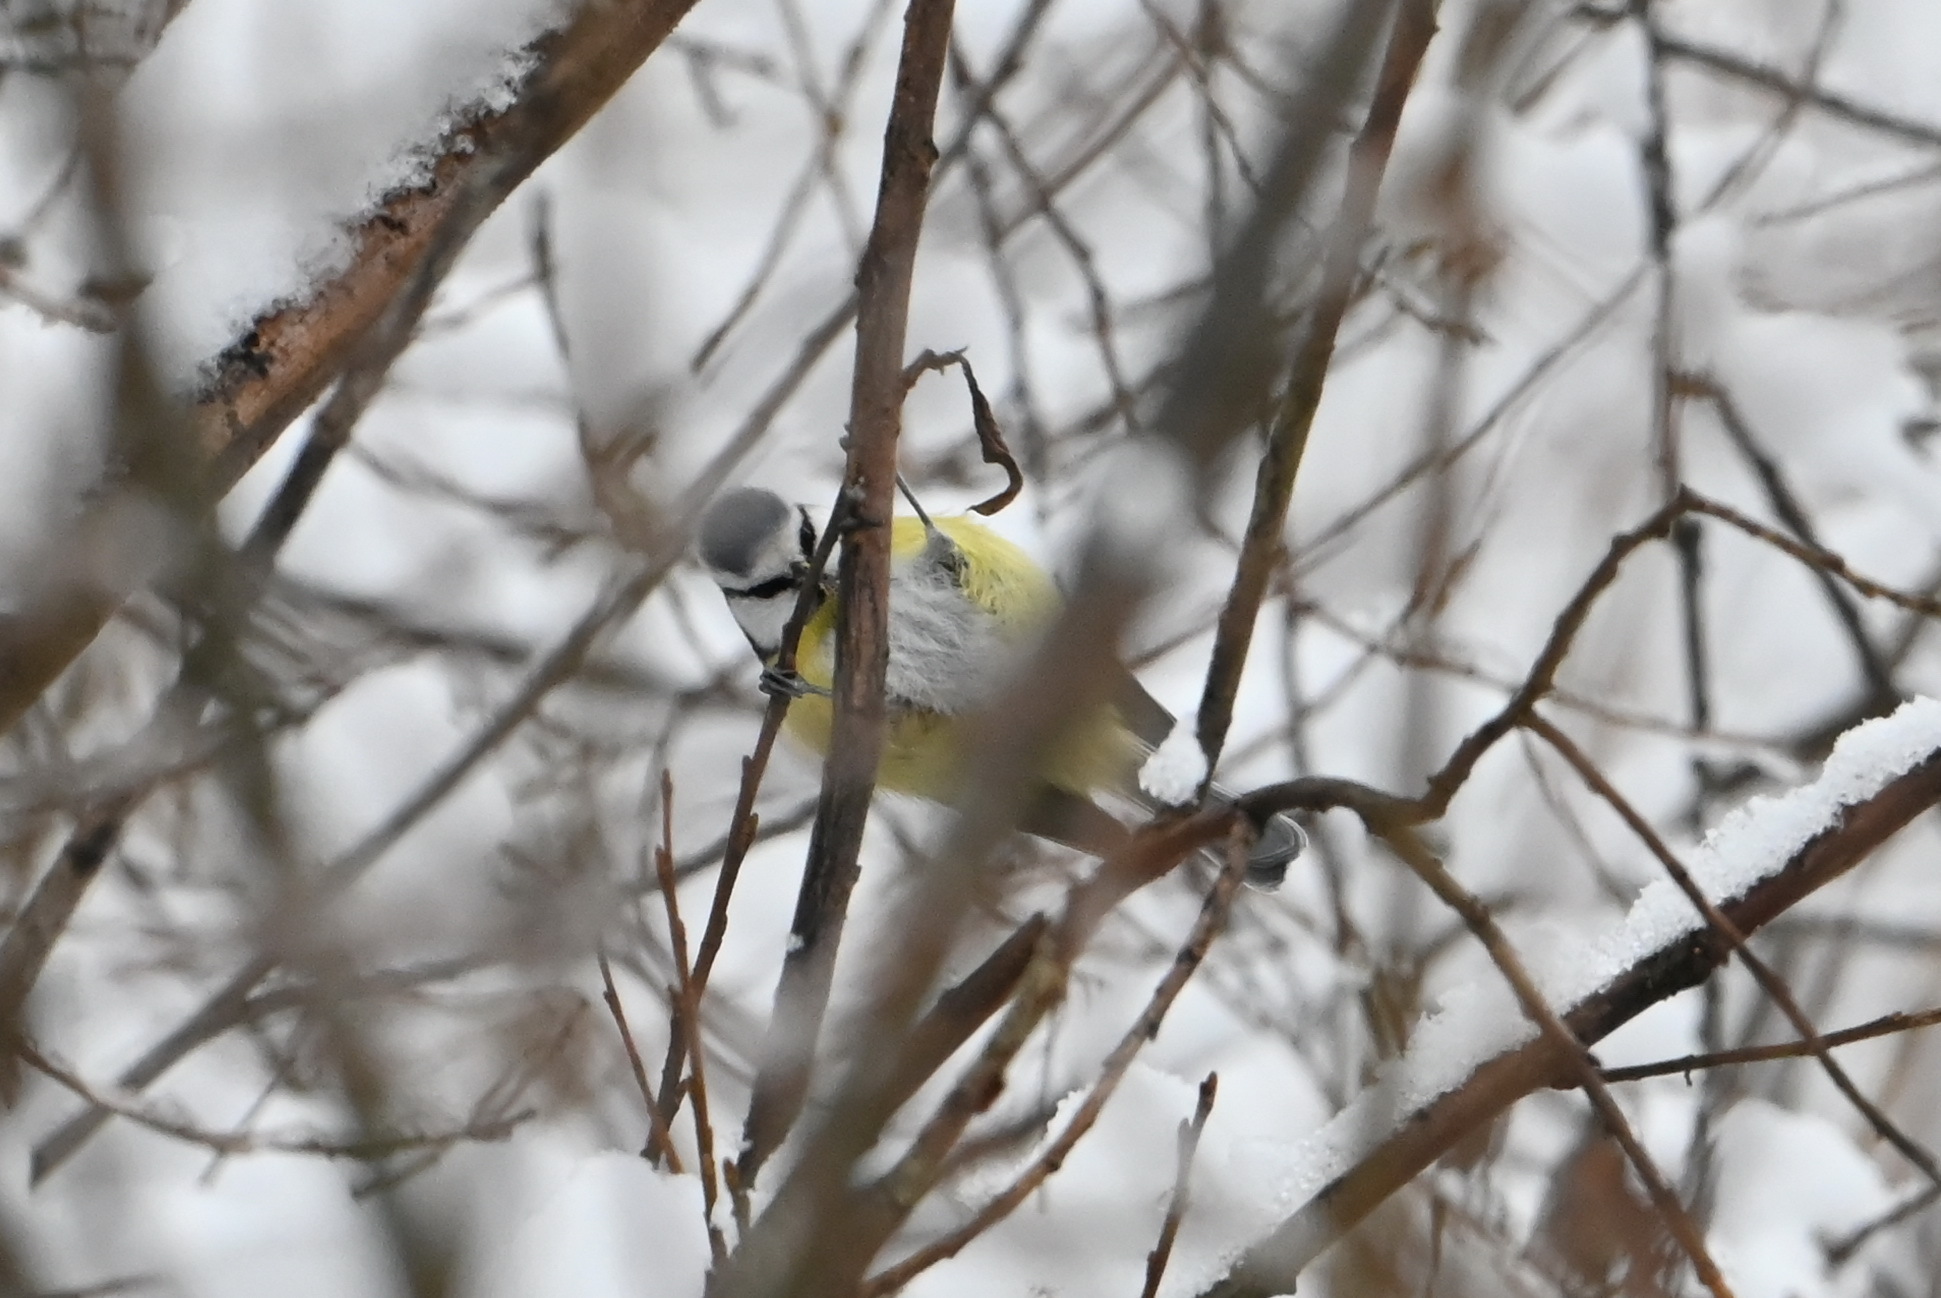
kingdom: Animalia
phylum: Chordata
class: Aves
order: Passeriformes
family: Paridae
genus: Cyanistes
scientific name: Cyanistes caeruleus
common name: Eurasian blue tit
